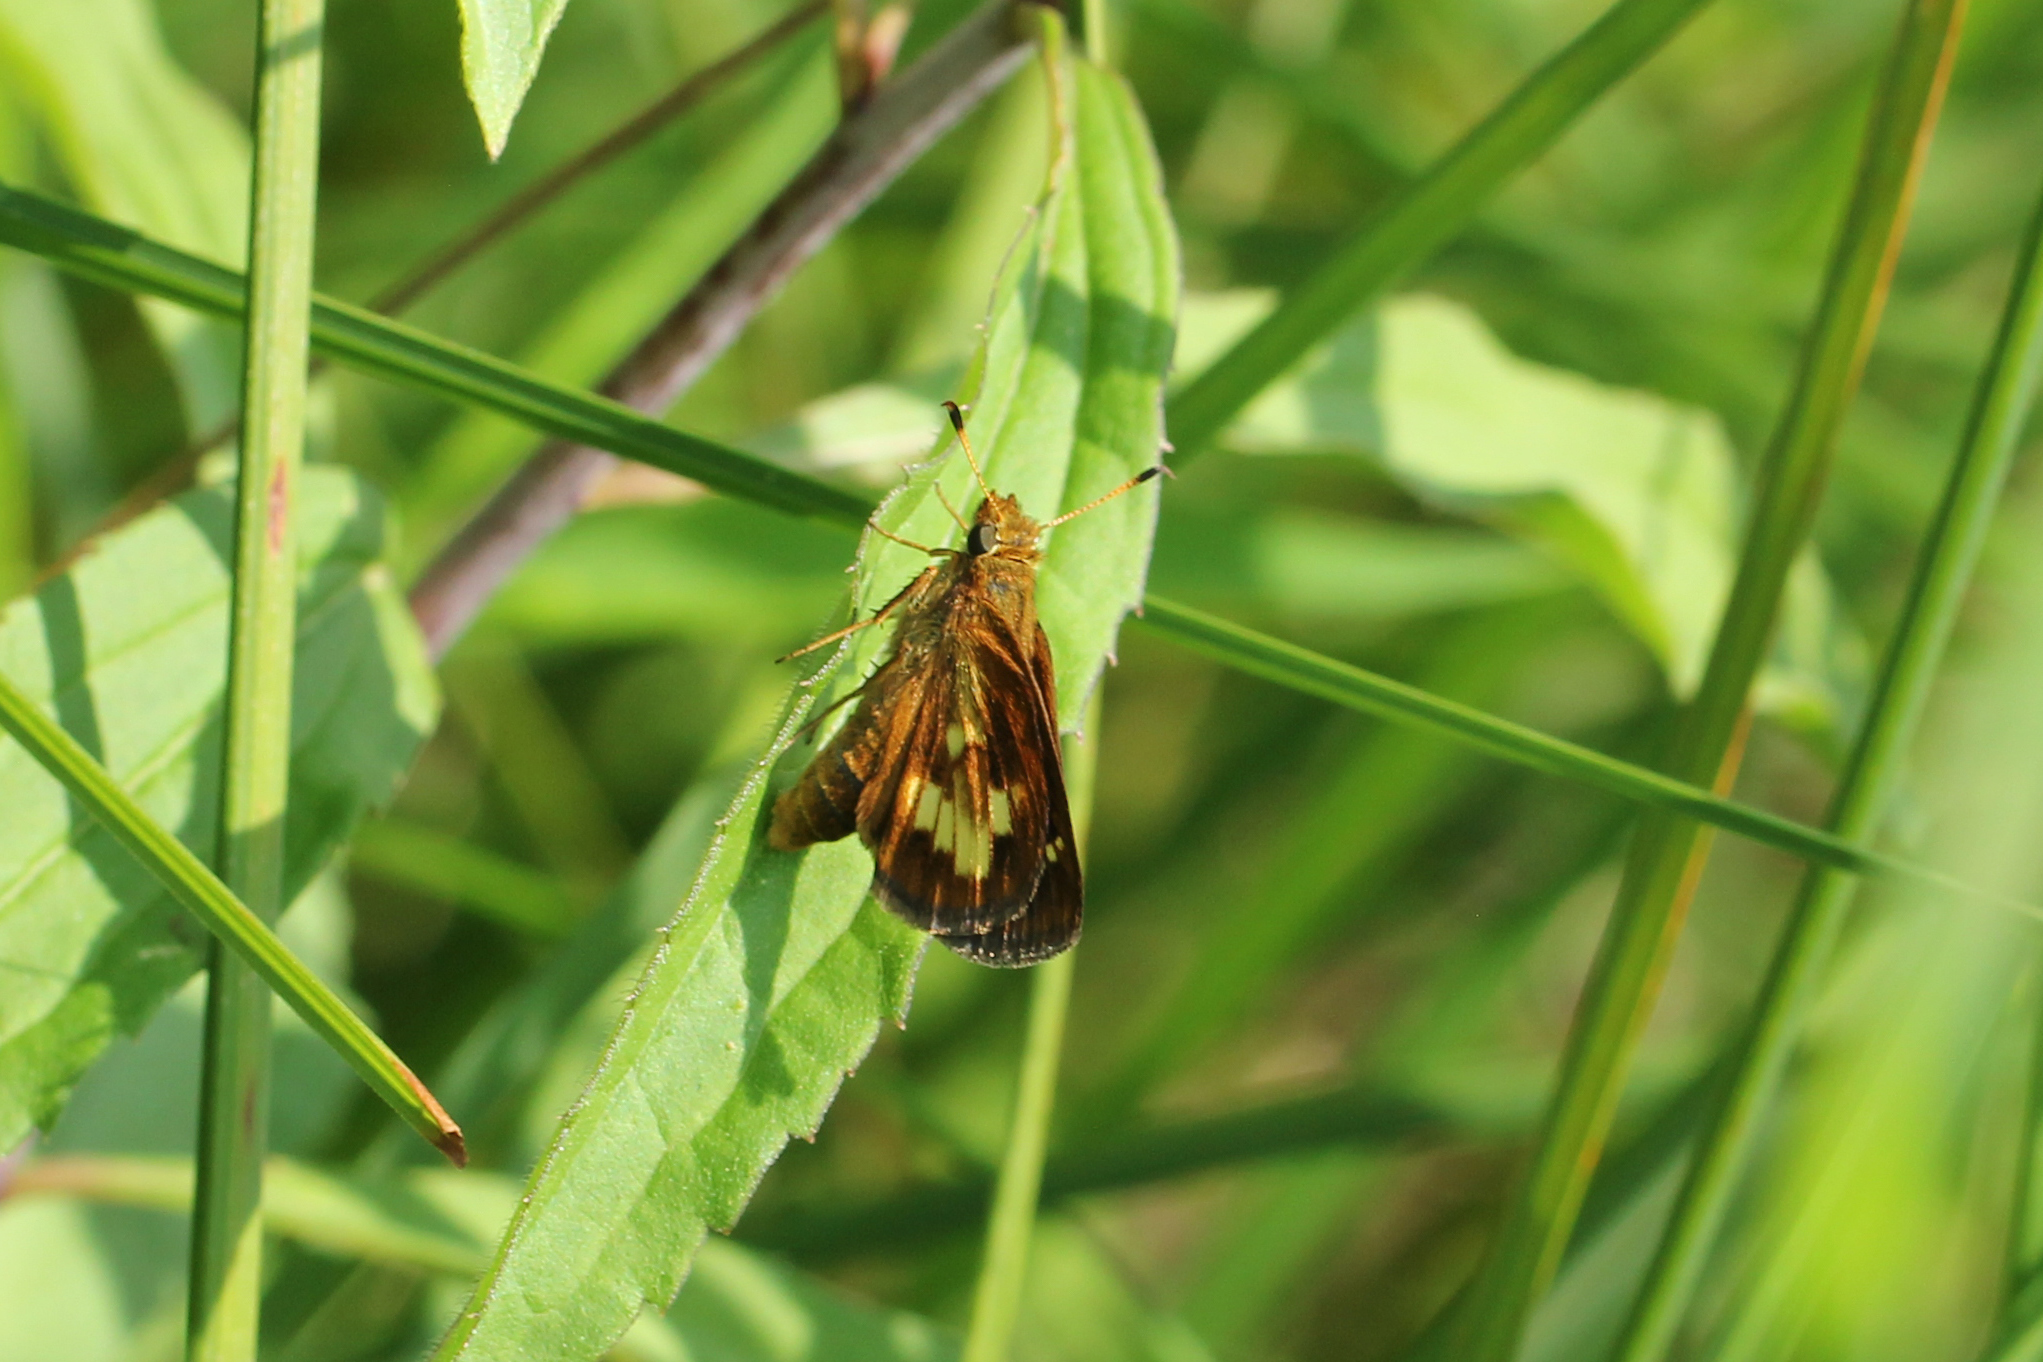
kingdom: Animalia
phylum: Arthropoda
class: Insecta
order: Lepidoptera
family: Hesperiidae
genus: Poanes
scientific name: Poanes massasoit
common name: Mulberrywing
